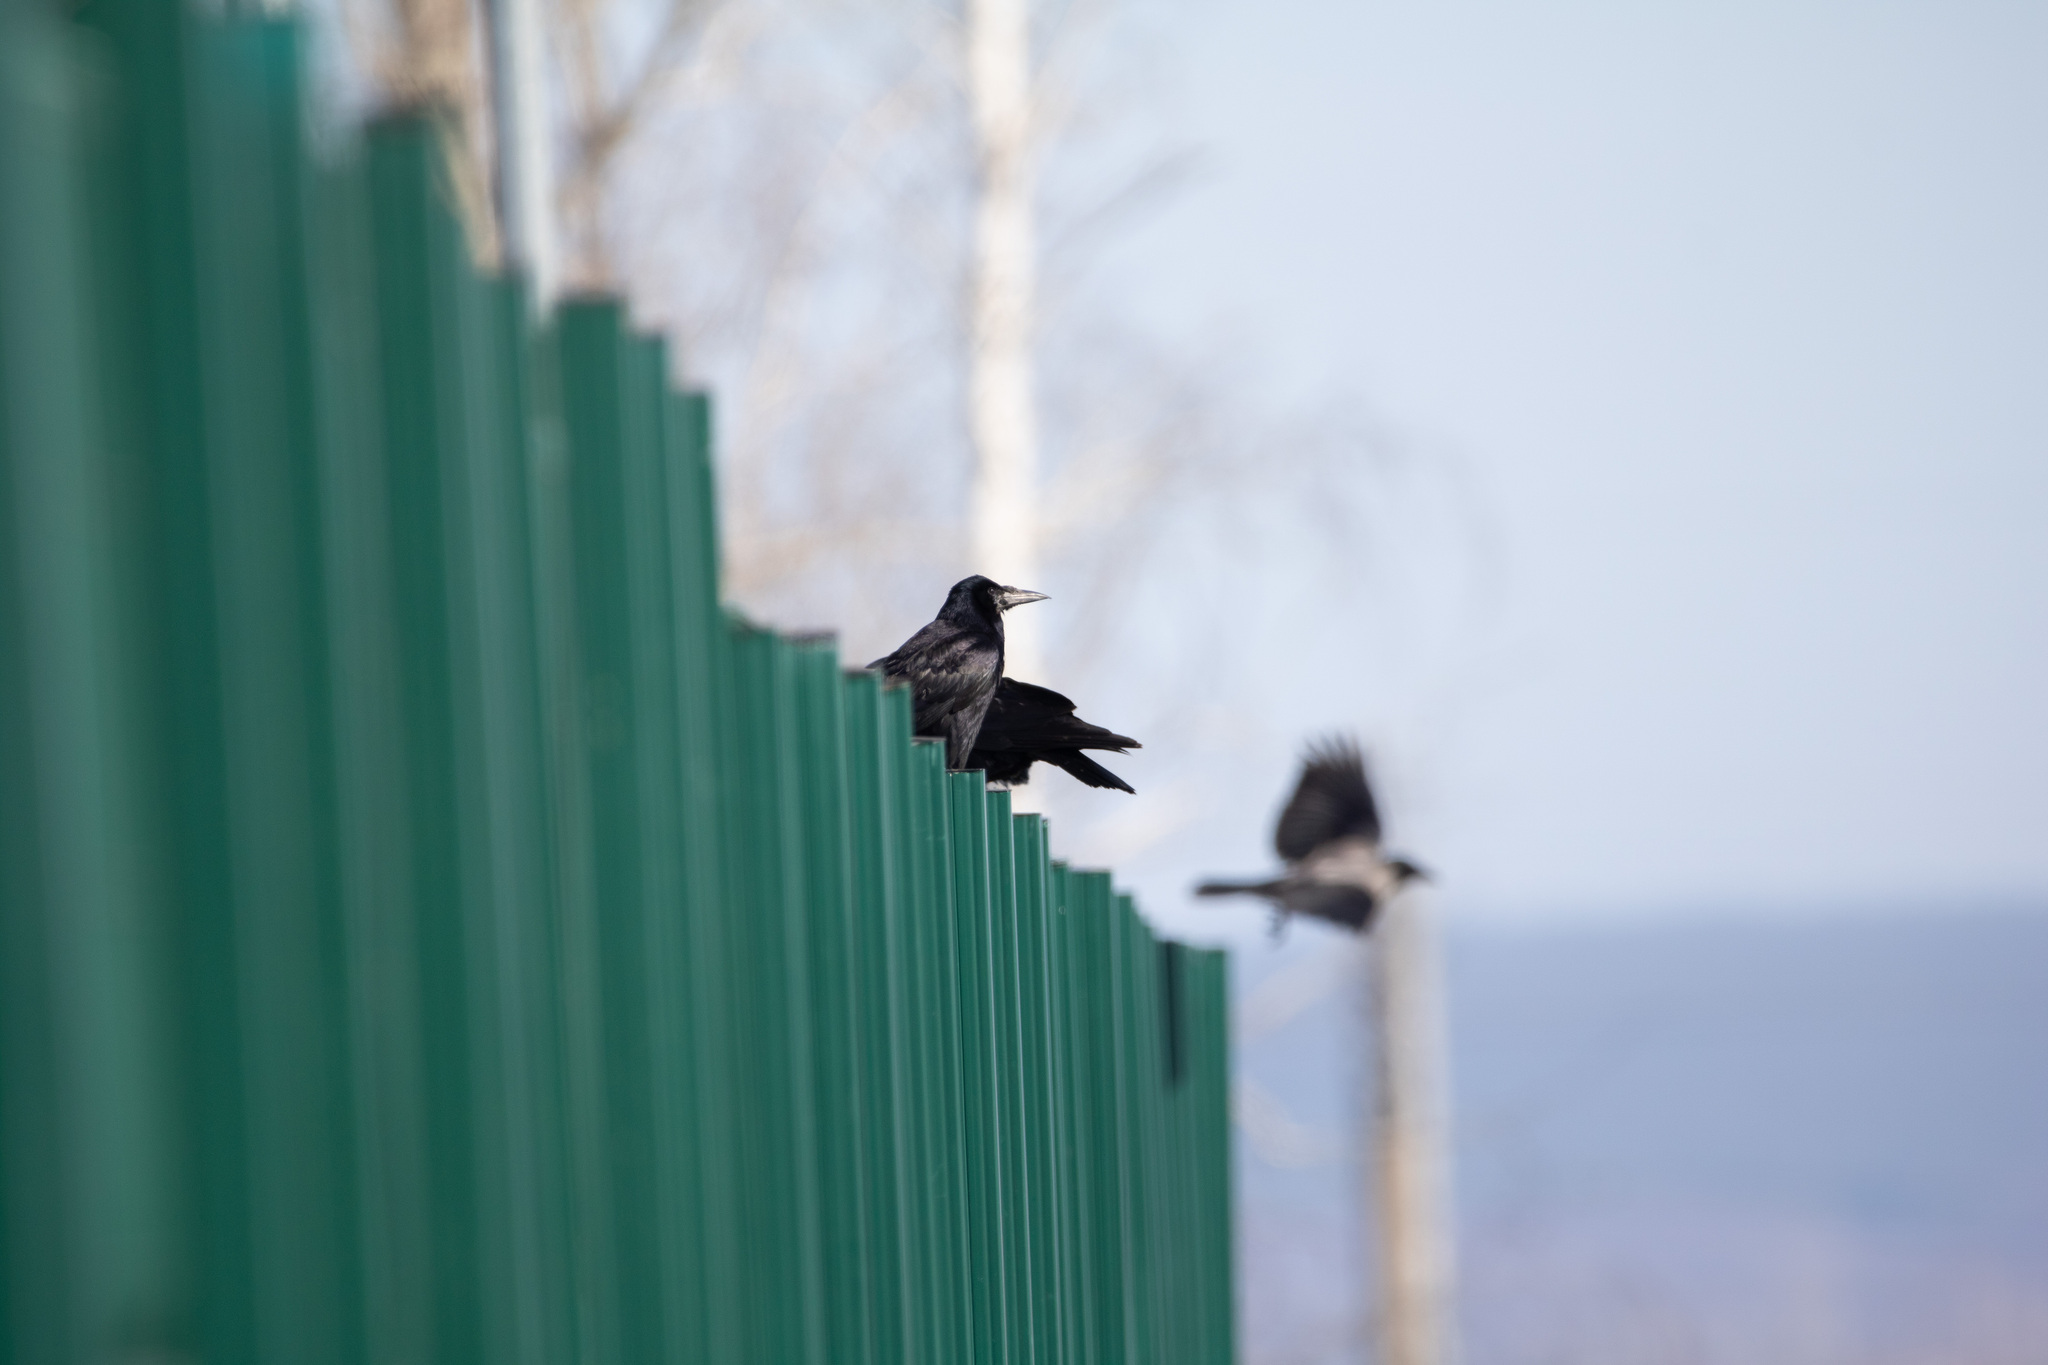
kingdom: Animalia
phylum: Chordata
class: Aves
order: Passeriformes
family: Corvidae
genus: Corvus
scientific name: Corvus frugilegus
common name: Rook
